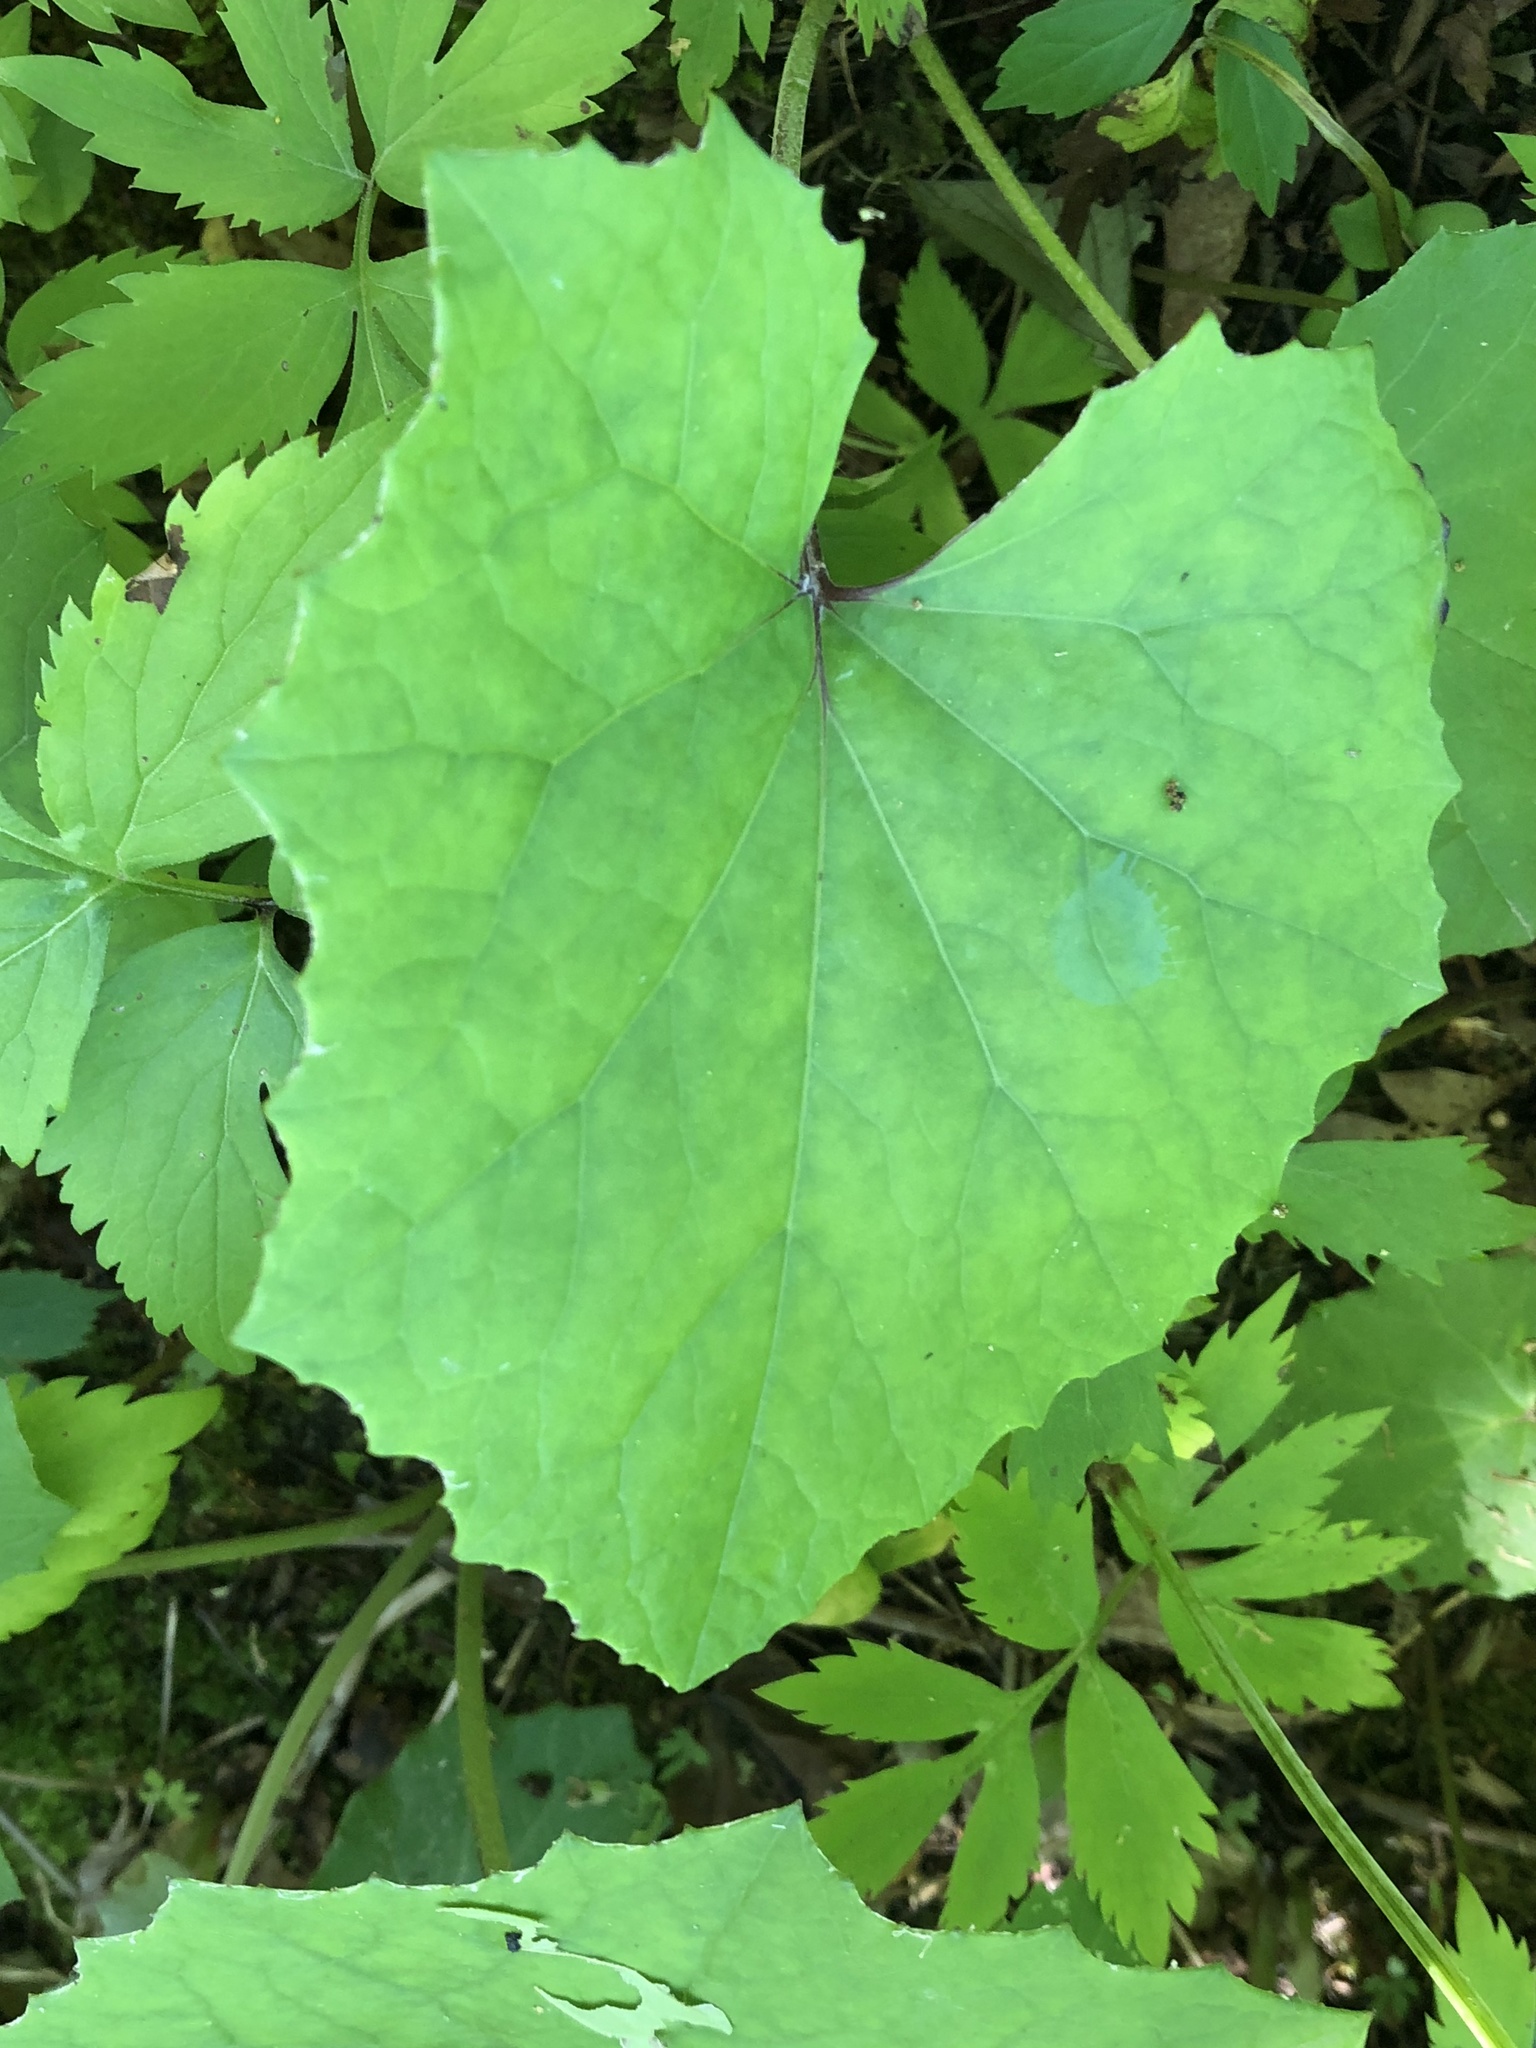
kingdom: Plantae
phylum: Tracheophyta
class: Magnoliopsida
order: Asterales
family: Asteraceae
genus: Tussilago
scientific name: Tussilago farfara
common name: Coltsfoot
